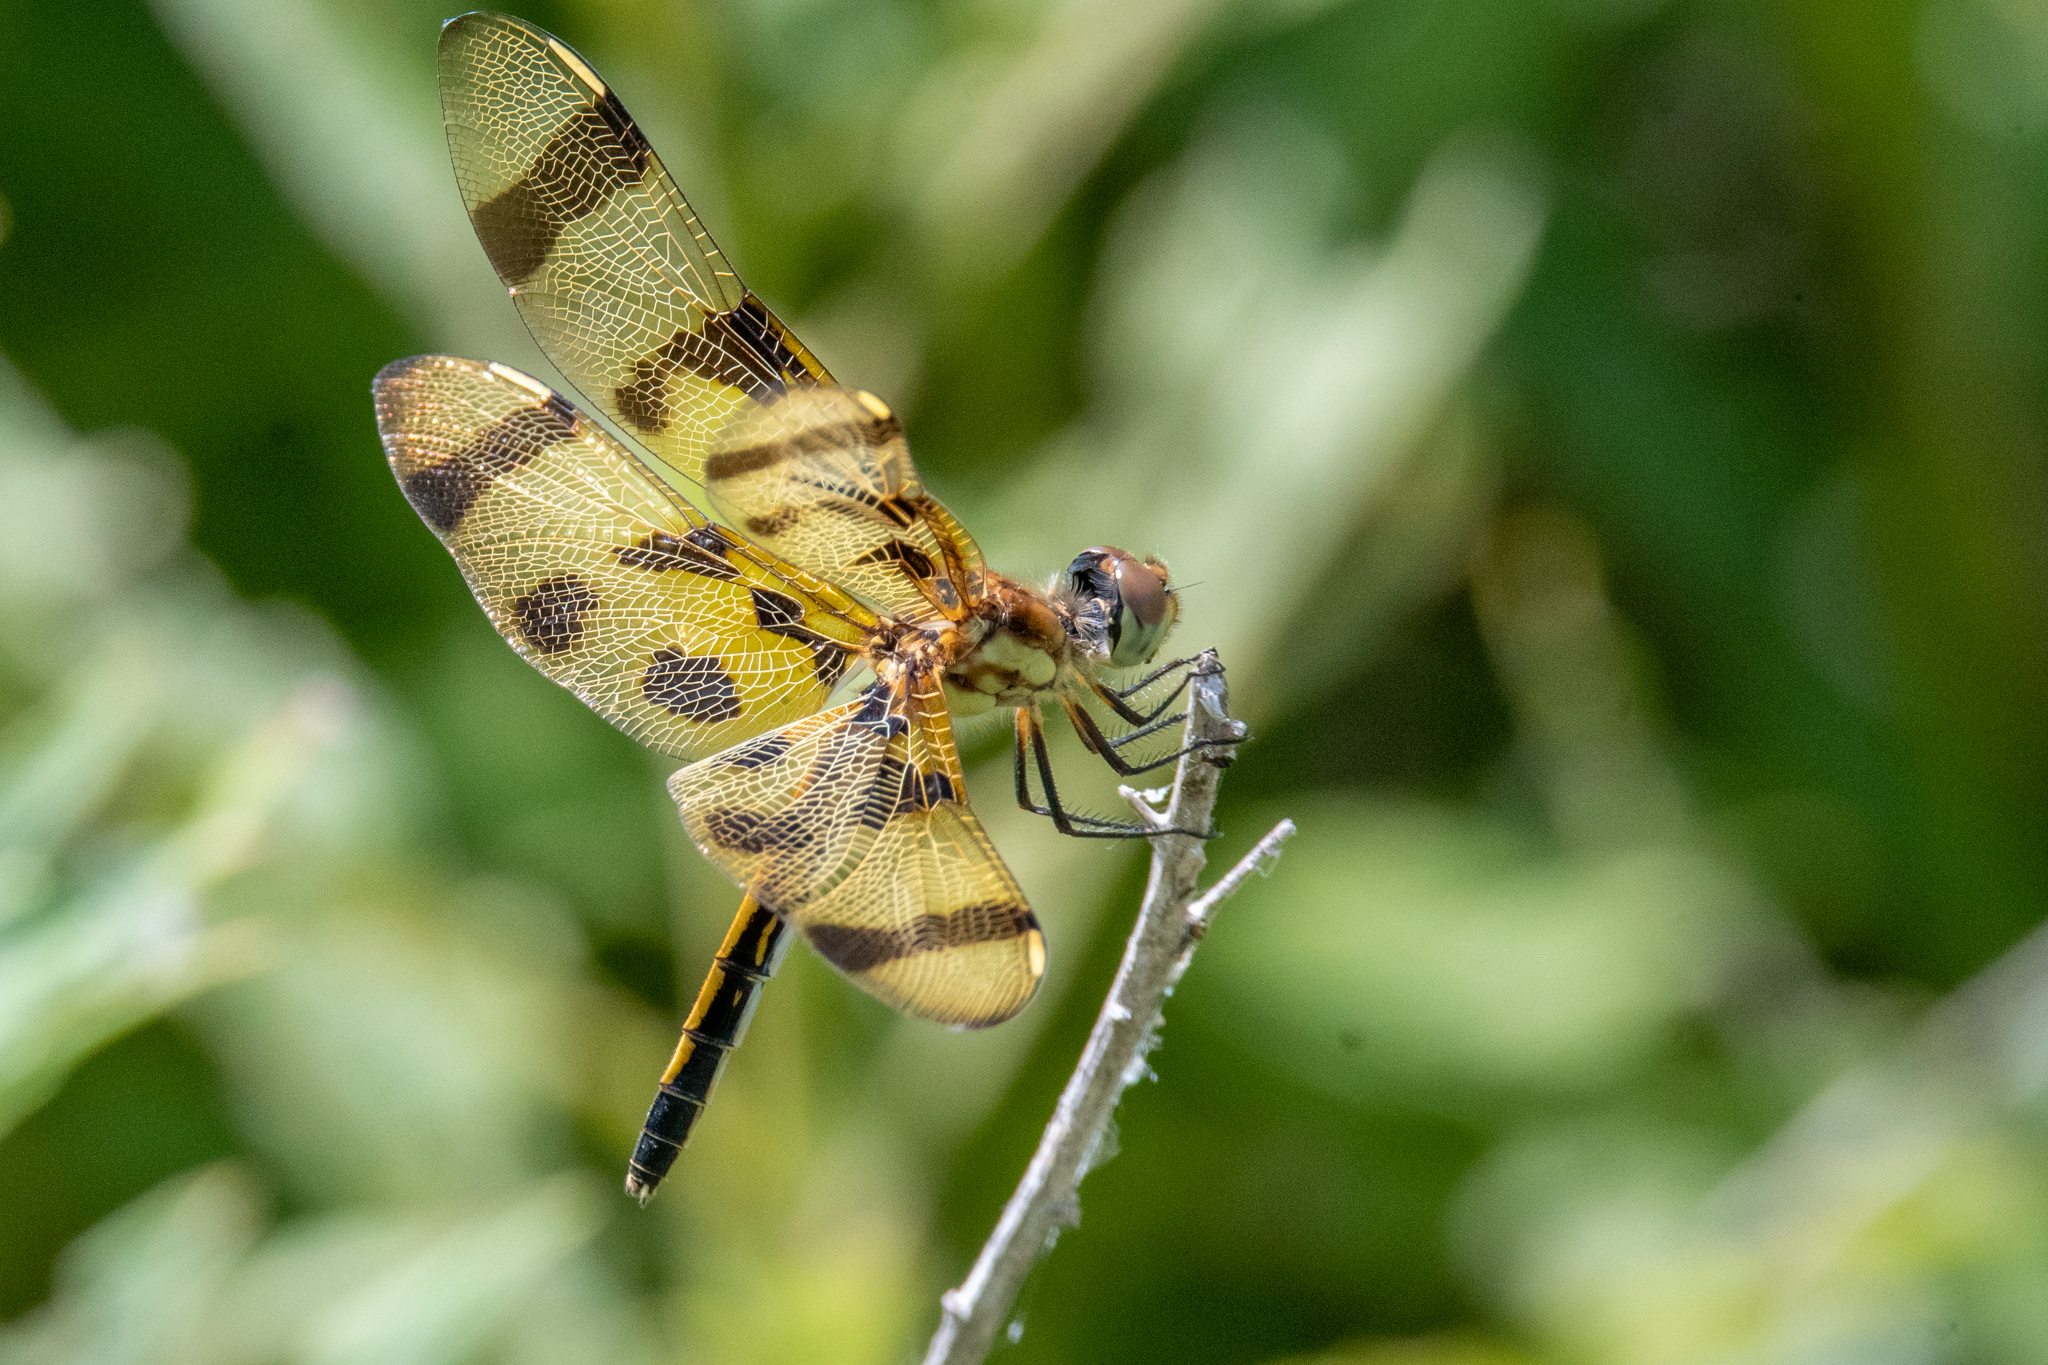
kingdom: Animalia
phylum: Arthropoda
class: Insecta
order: Odonata
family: Libellulidae
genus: Celithemis
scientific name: Celithemis eponina
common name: Halloween pennant
